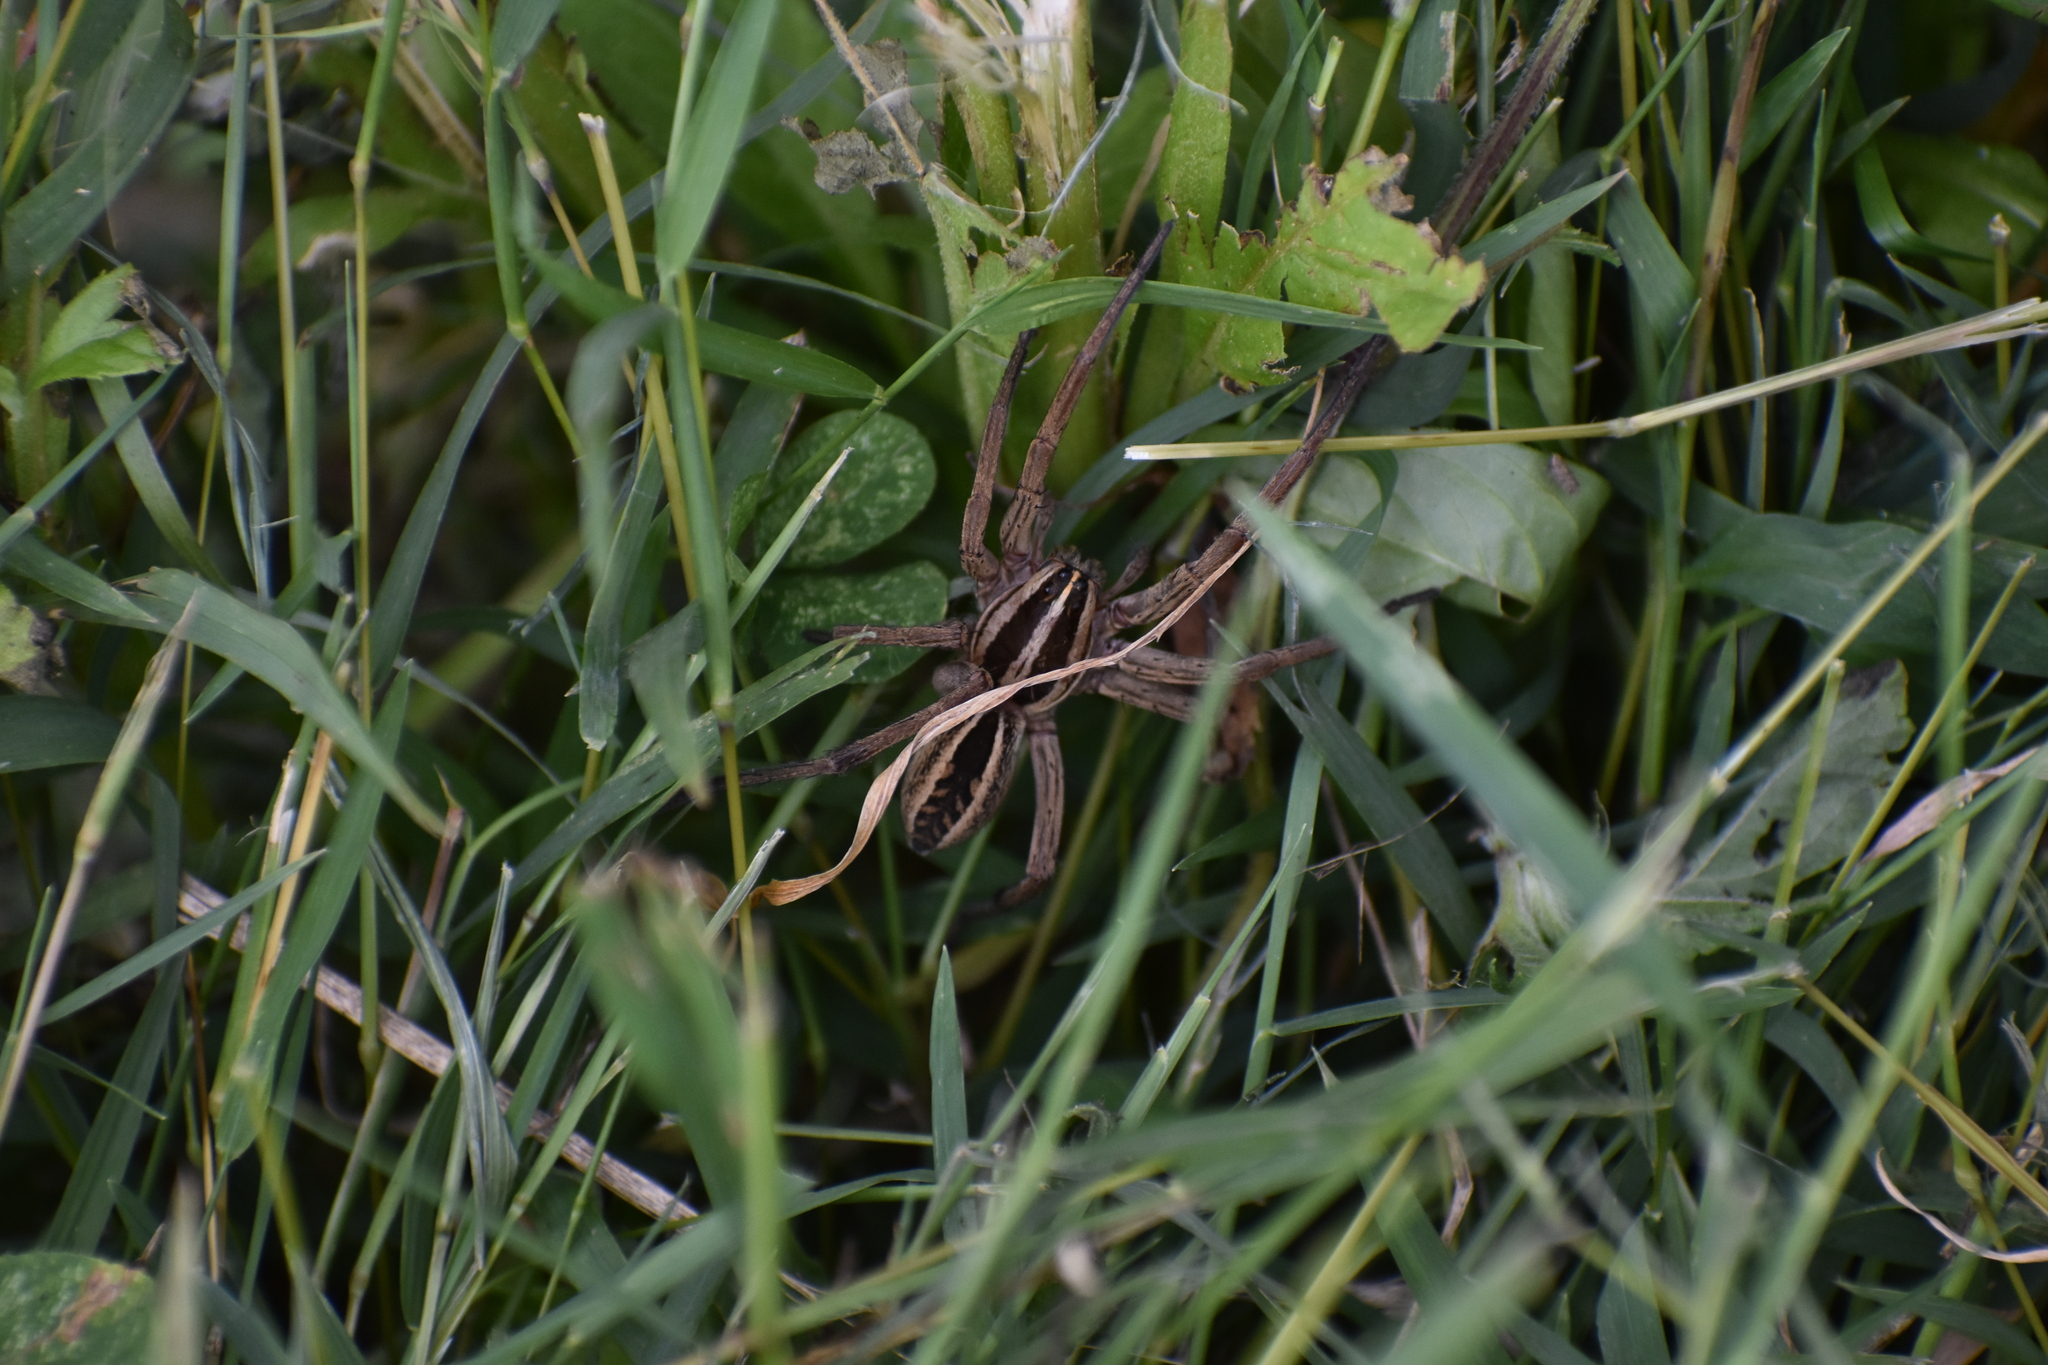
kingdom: Animalia
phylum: Arthropoda
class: Arachnida
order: Araneae
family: Lycosidae
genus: Rabidosa
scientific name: Rabidosa rabida
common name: Rabid wolf spider
